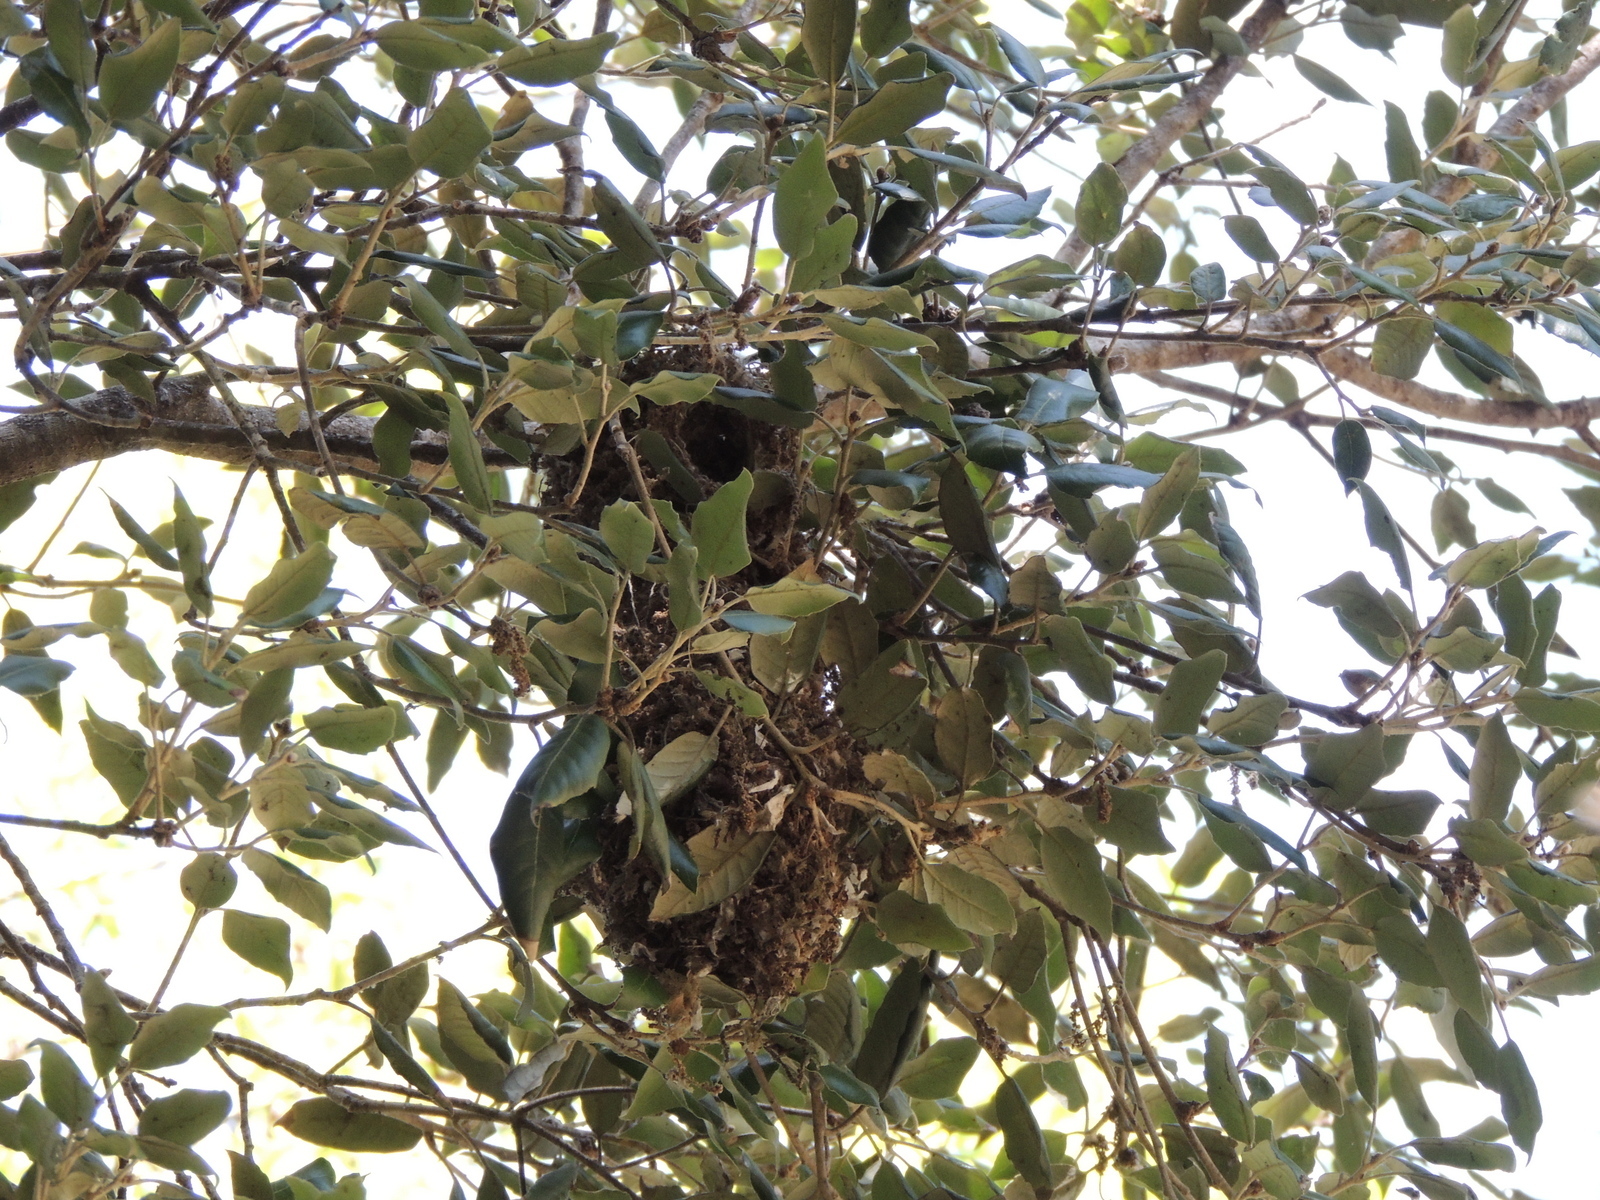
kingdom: Animalia
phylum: Chordata
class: Aves
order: Passeriformes
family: Aegithalidae
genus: Psaltriparus
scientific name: Psaltriparus minimus
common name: American bushtit
